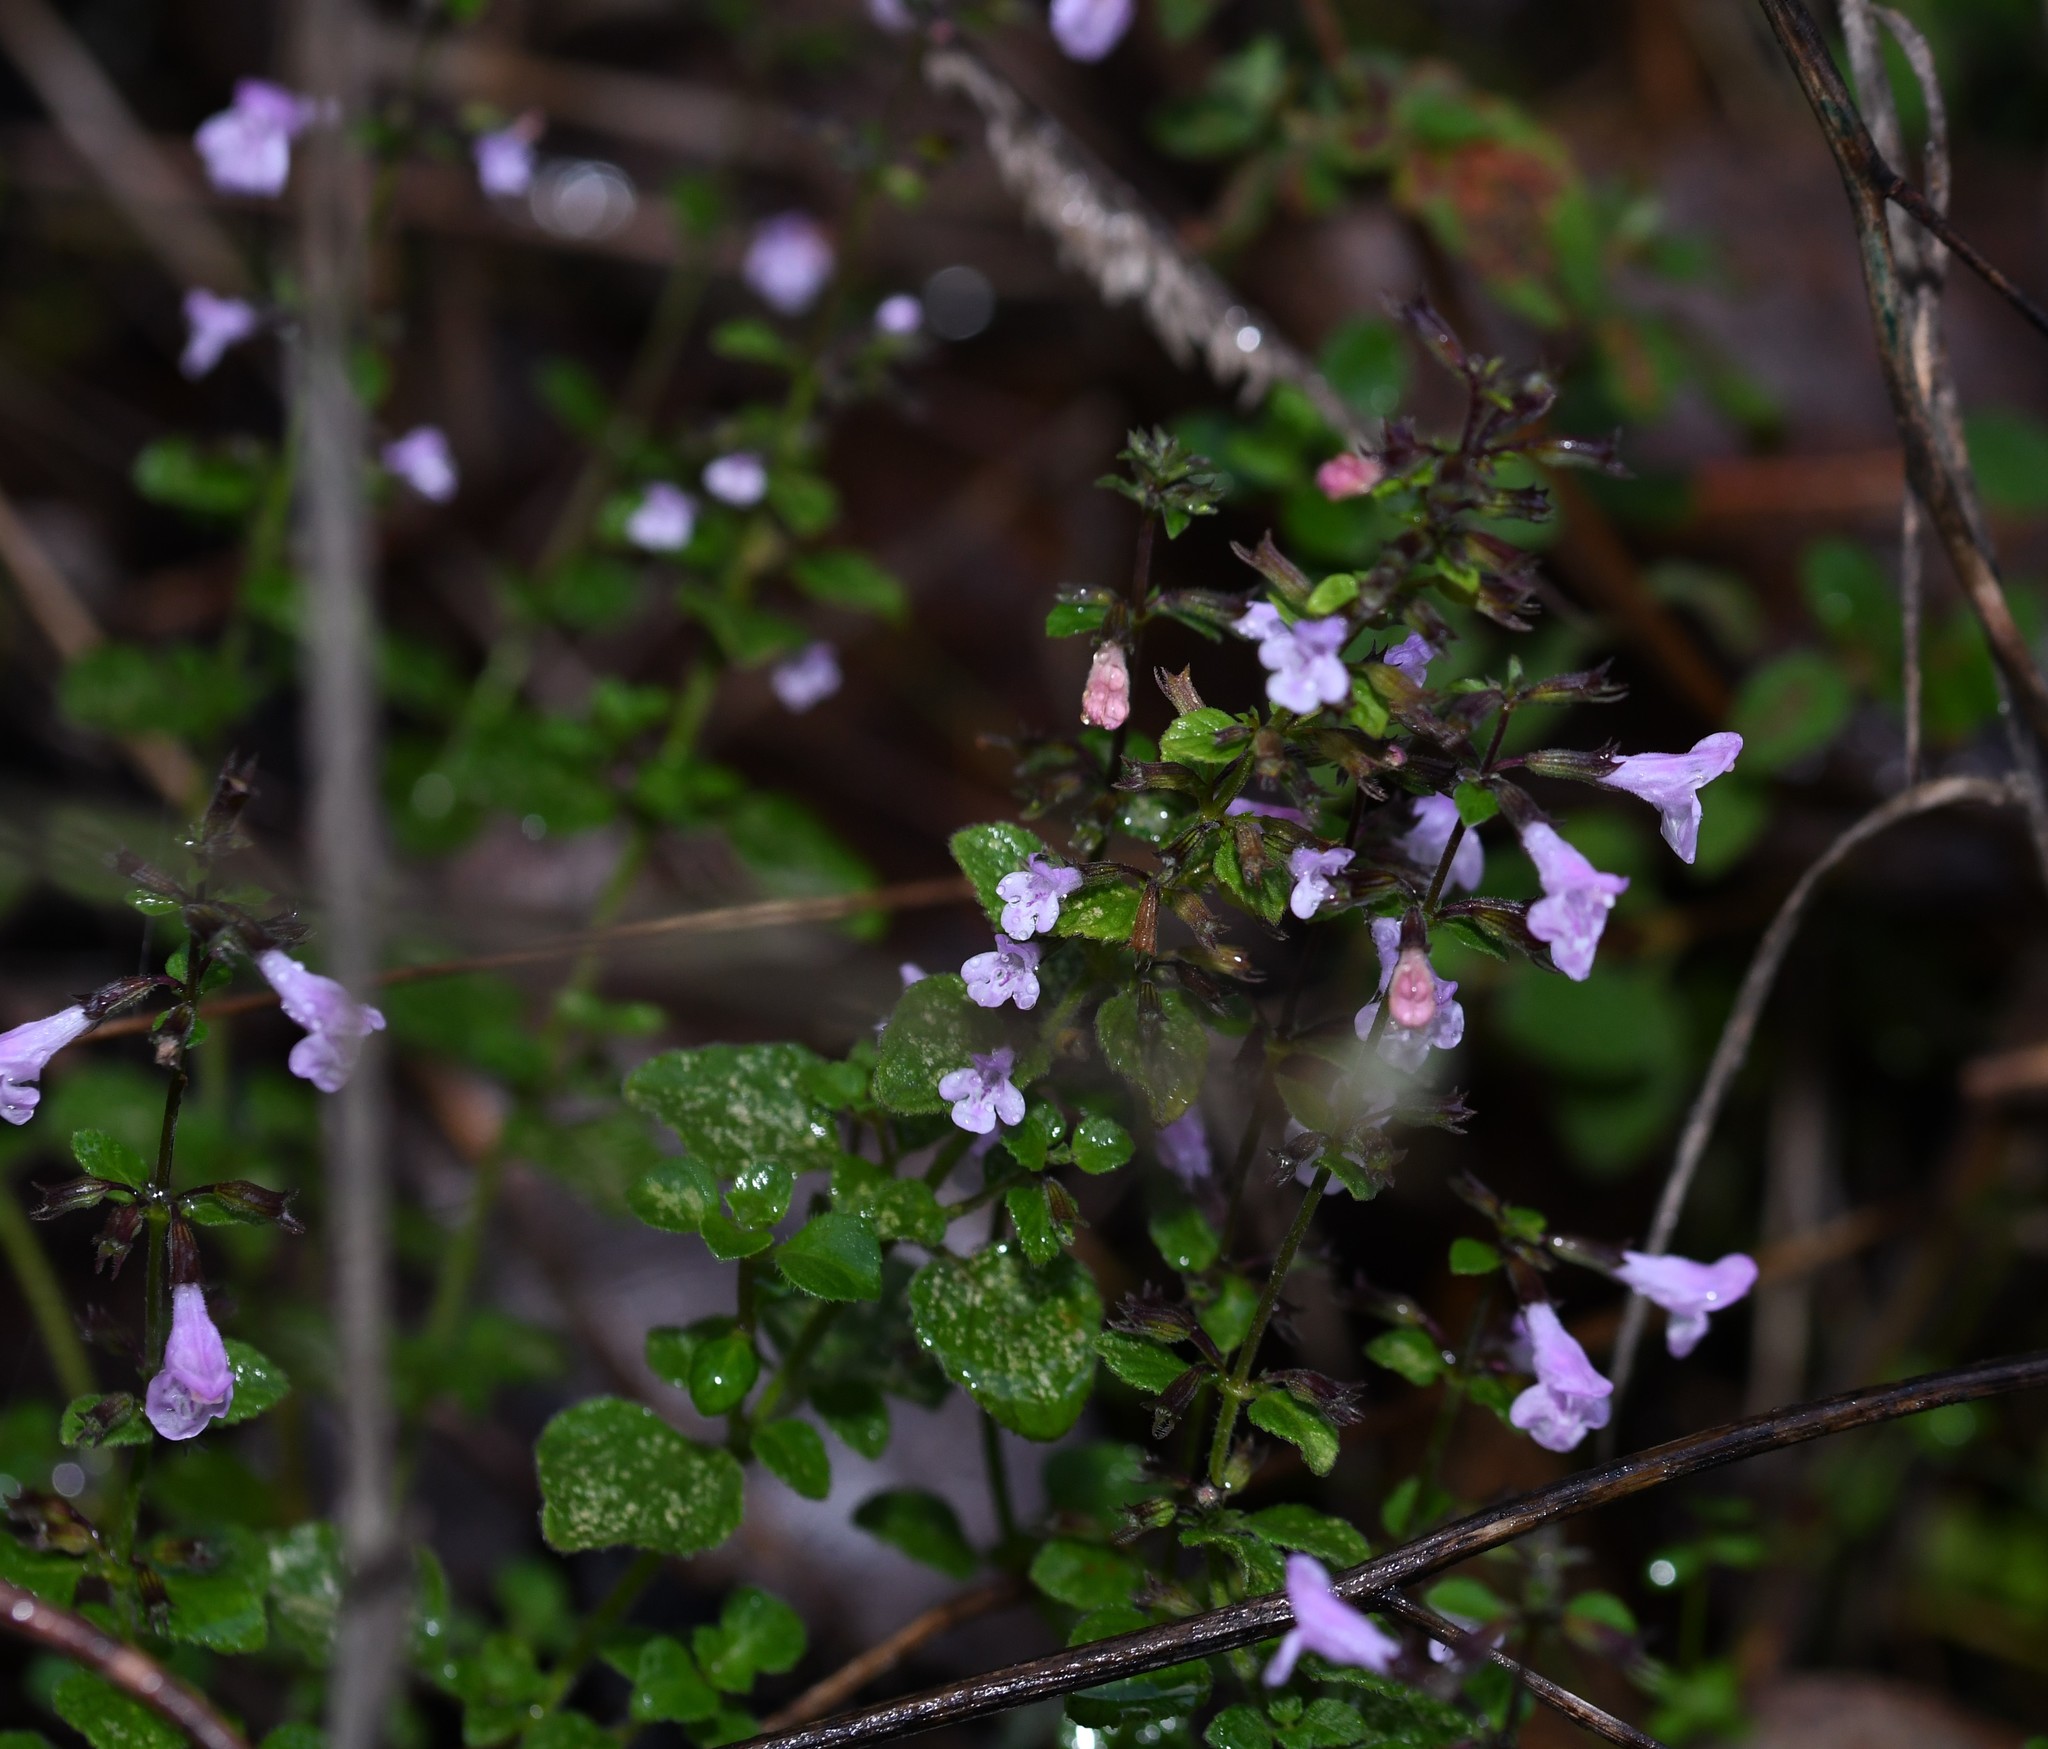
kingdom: Plantae
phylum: Tracheophyta
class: Magnoliopsida
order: Lamiales
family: Lamiaceae
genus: Clinopodium
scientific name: Clinopodium nepeta
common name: Lesser calamint
